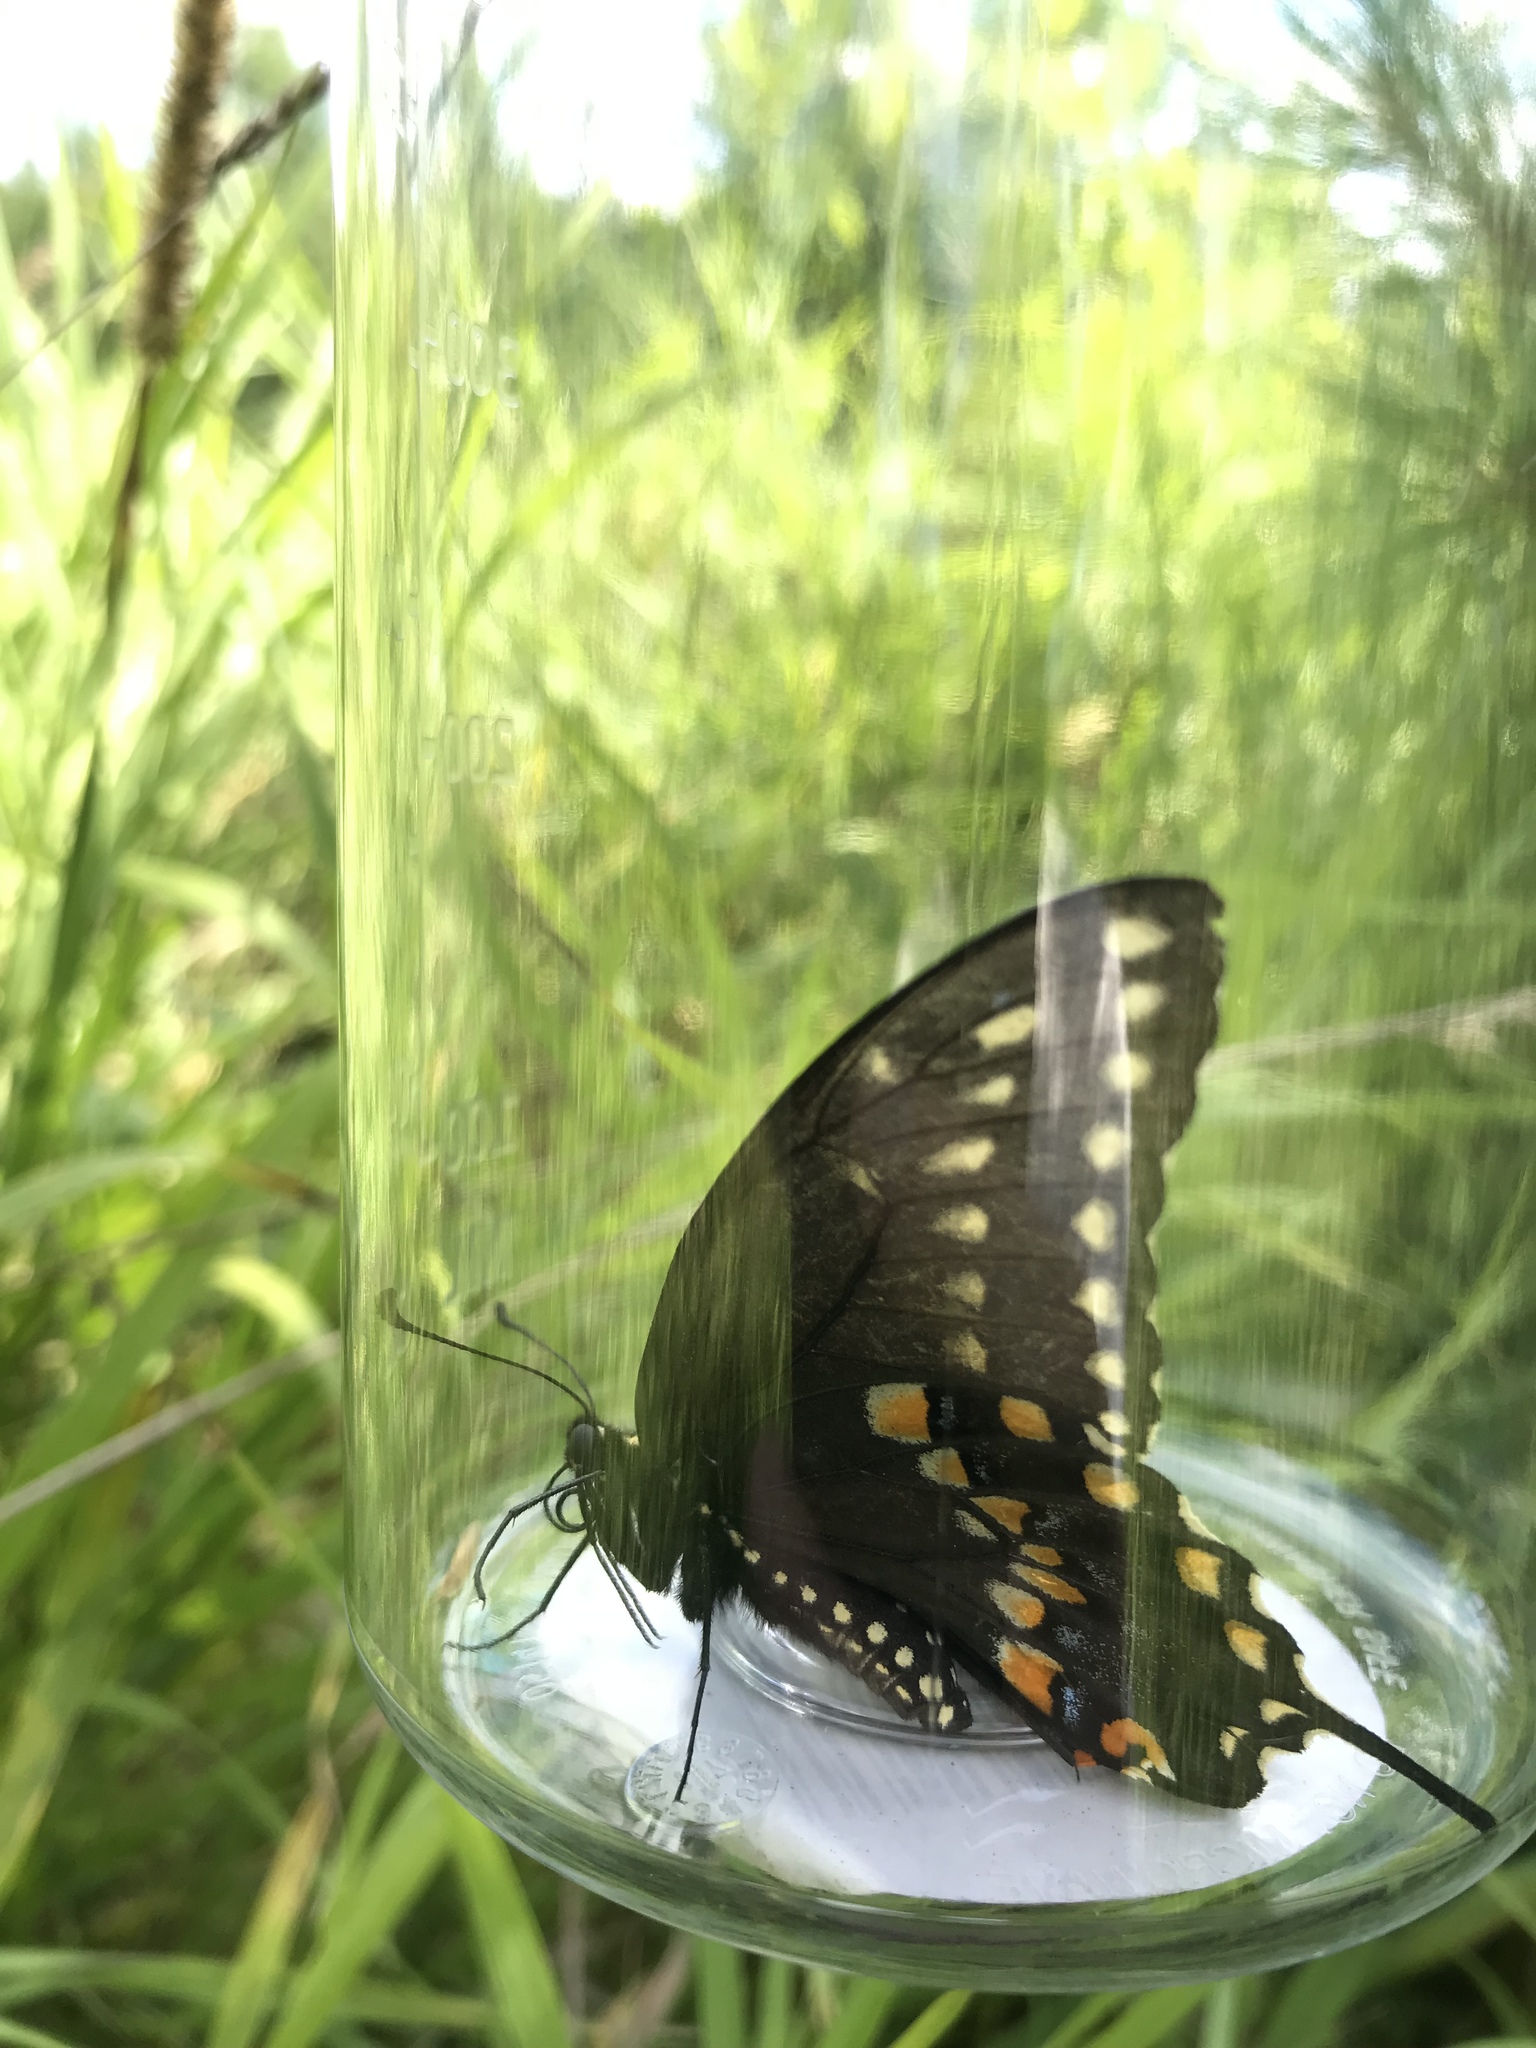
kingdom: Animalia
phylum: Arthropoda
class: Insecta
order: Lepidoptera
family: Papilionidae
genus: Papilio
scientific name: Papilio polyxenes
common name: Black swallowtail
